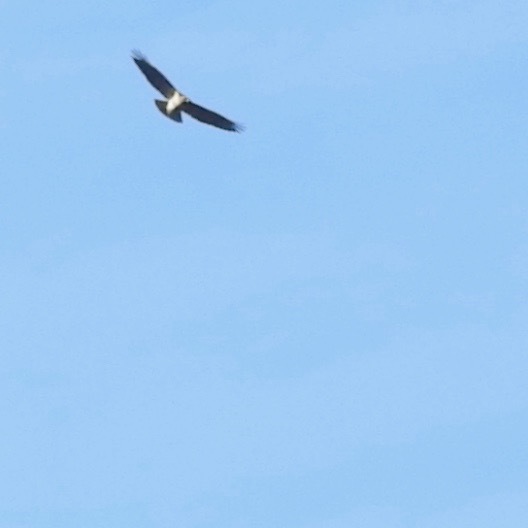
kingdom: Animalia
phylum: Chordata
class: Aves
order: Accipitriformes
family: Accipitridae
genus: Buteo
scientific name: Buteo jamaicensis
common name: Red-tailed hawk
